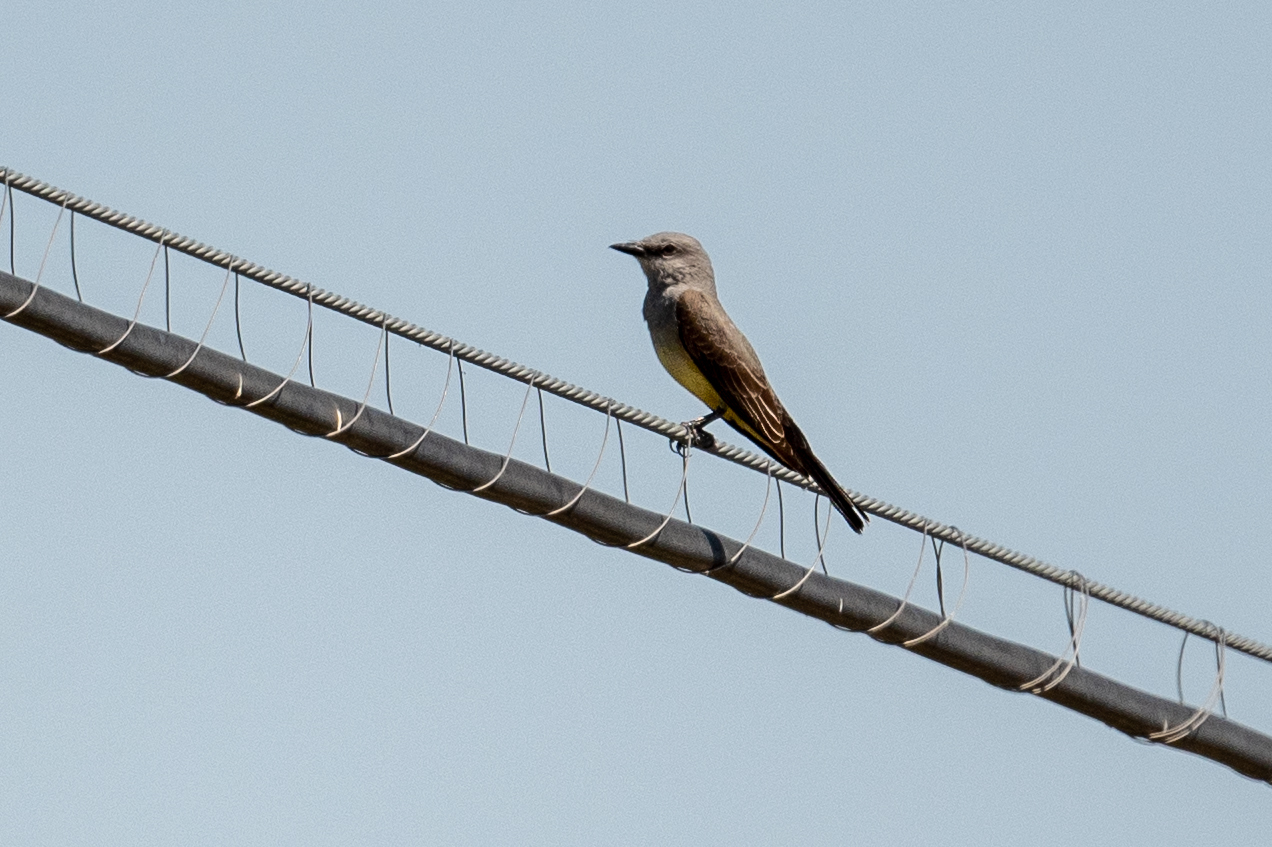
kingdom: Animalia
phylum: Chordata
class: Aves
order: Passeriformes
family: Tyrannidae
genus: Tyrannus
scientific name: Tyrannus verticalis
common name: Western kingbird
